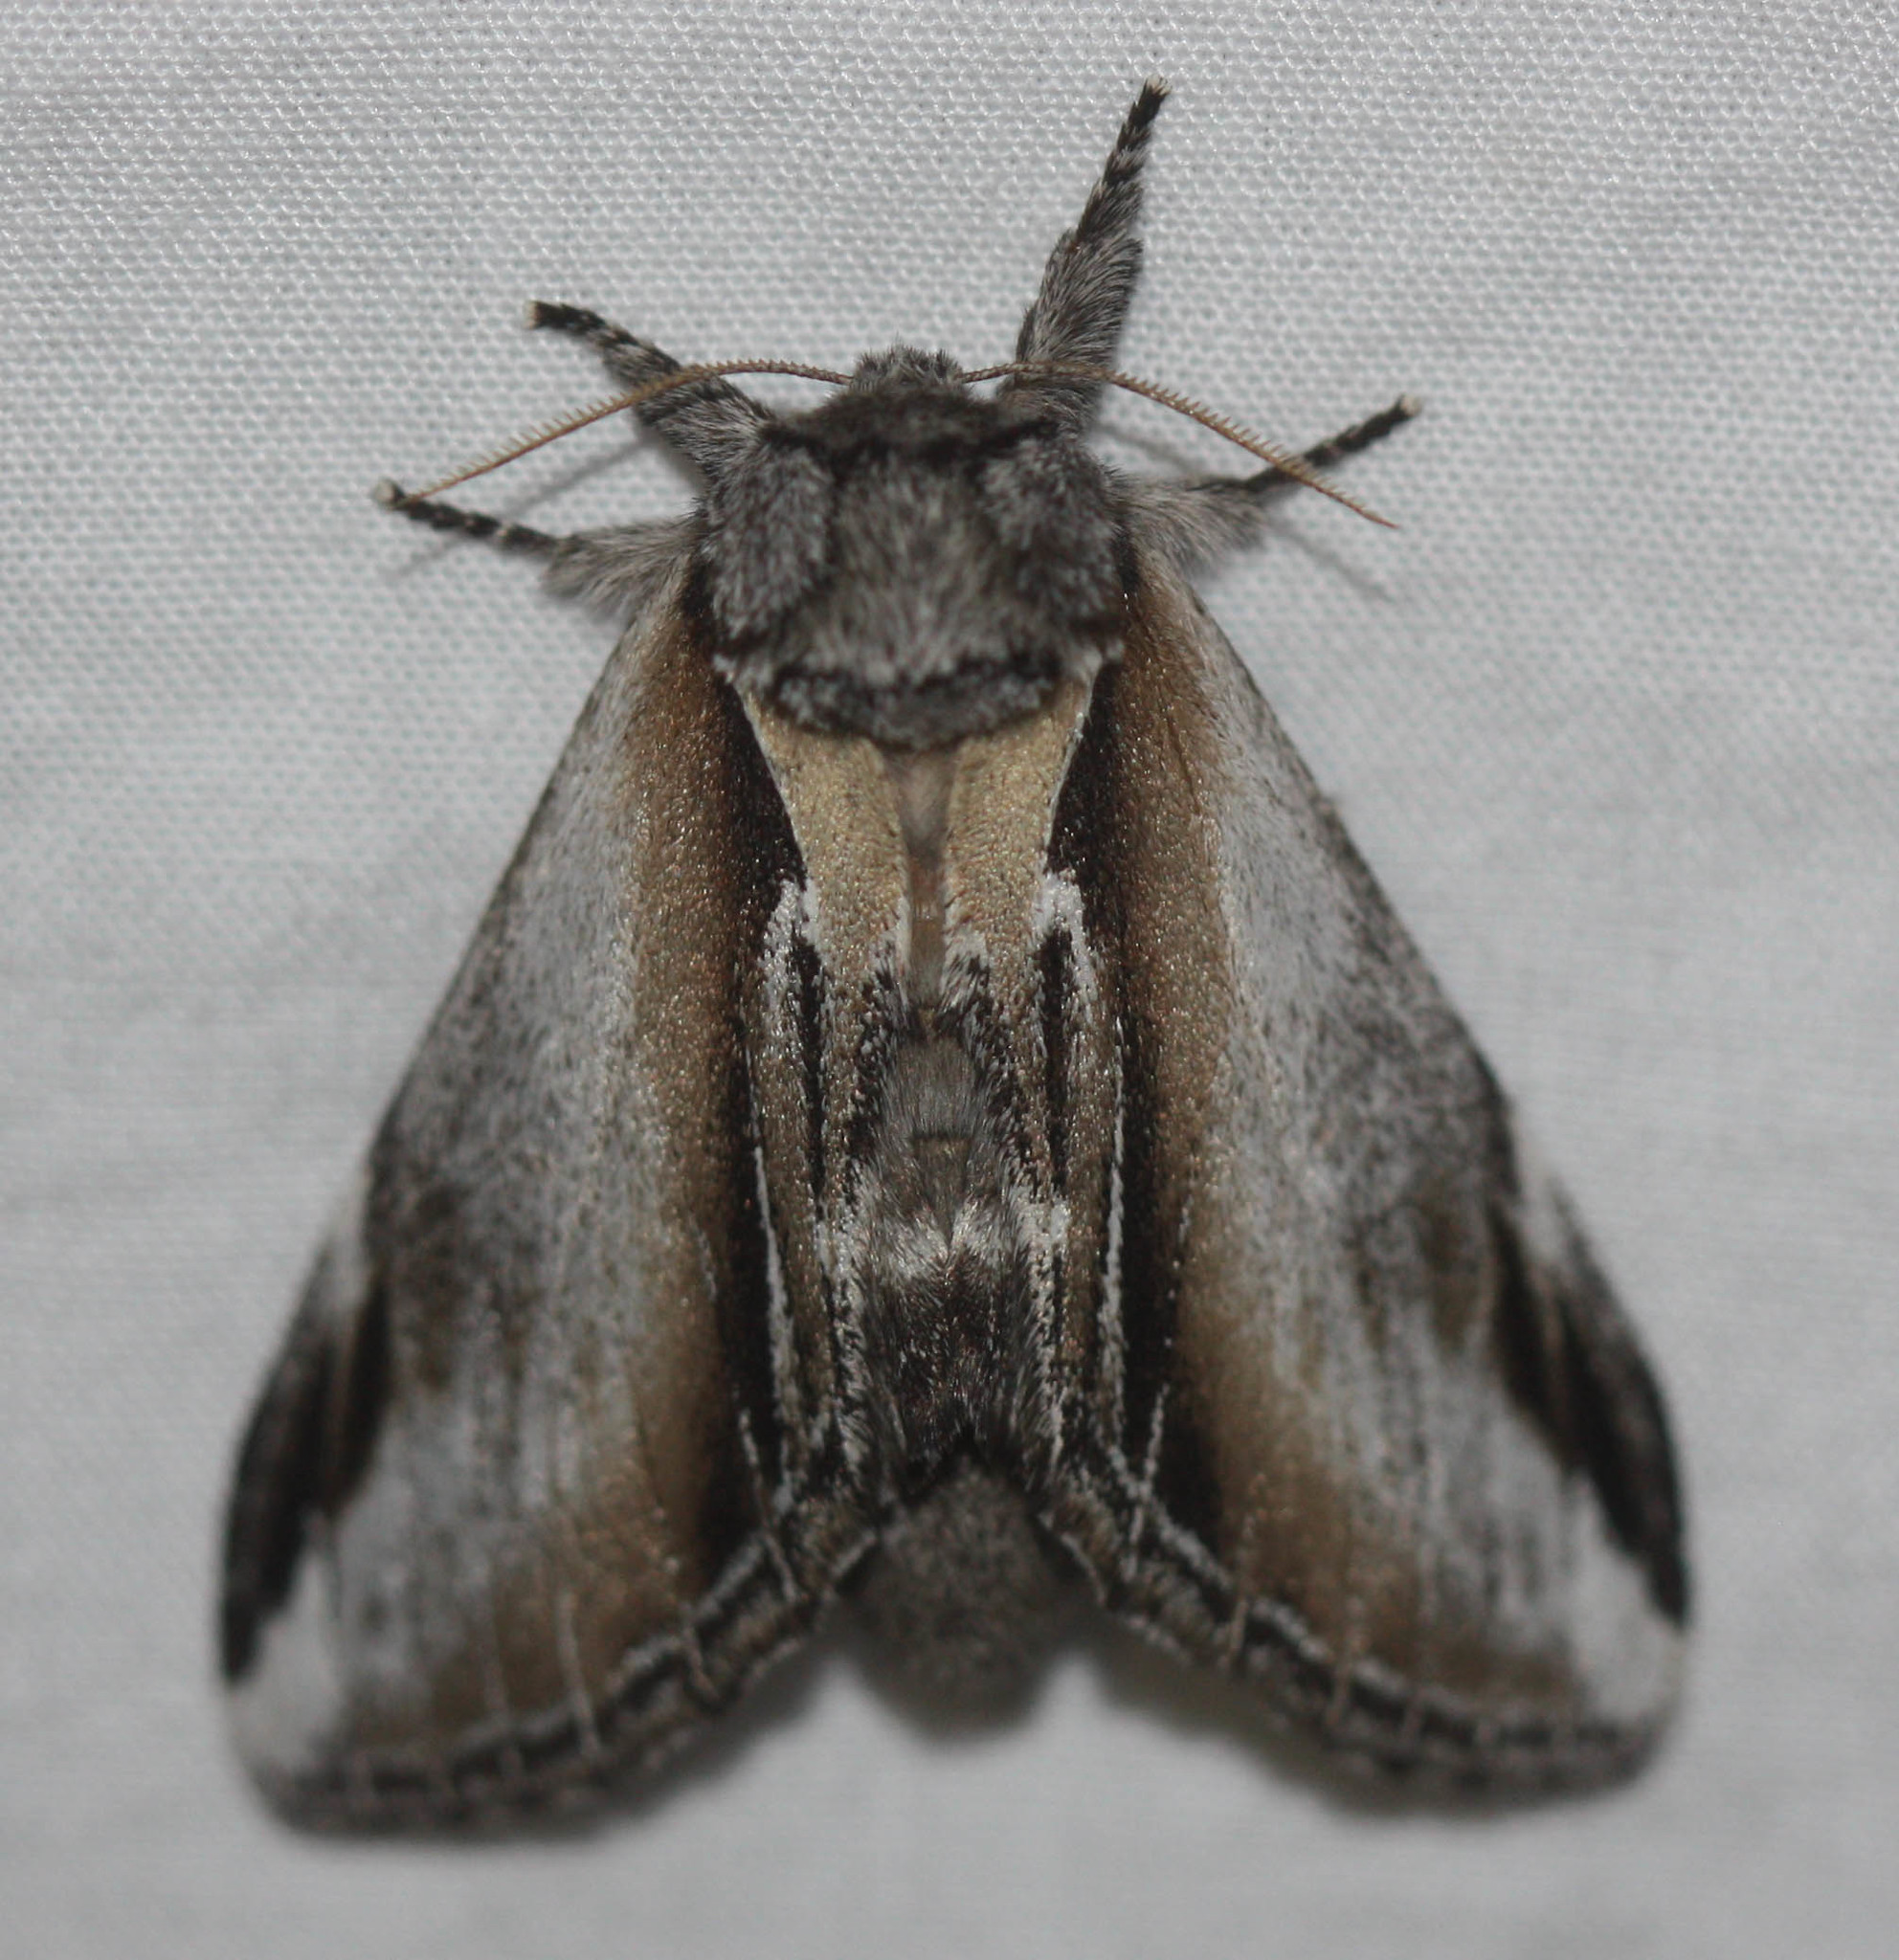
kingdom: Animalia
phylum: Arthropoda
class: Insecta
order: Lepidoptera
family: Notodontidae
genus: Pheosia
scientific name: Pheosia rimosa
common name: Black-rimmed prominent
